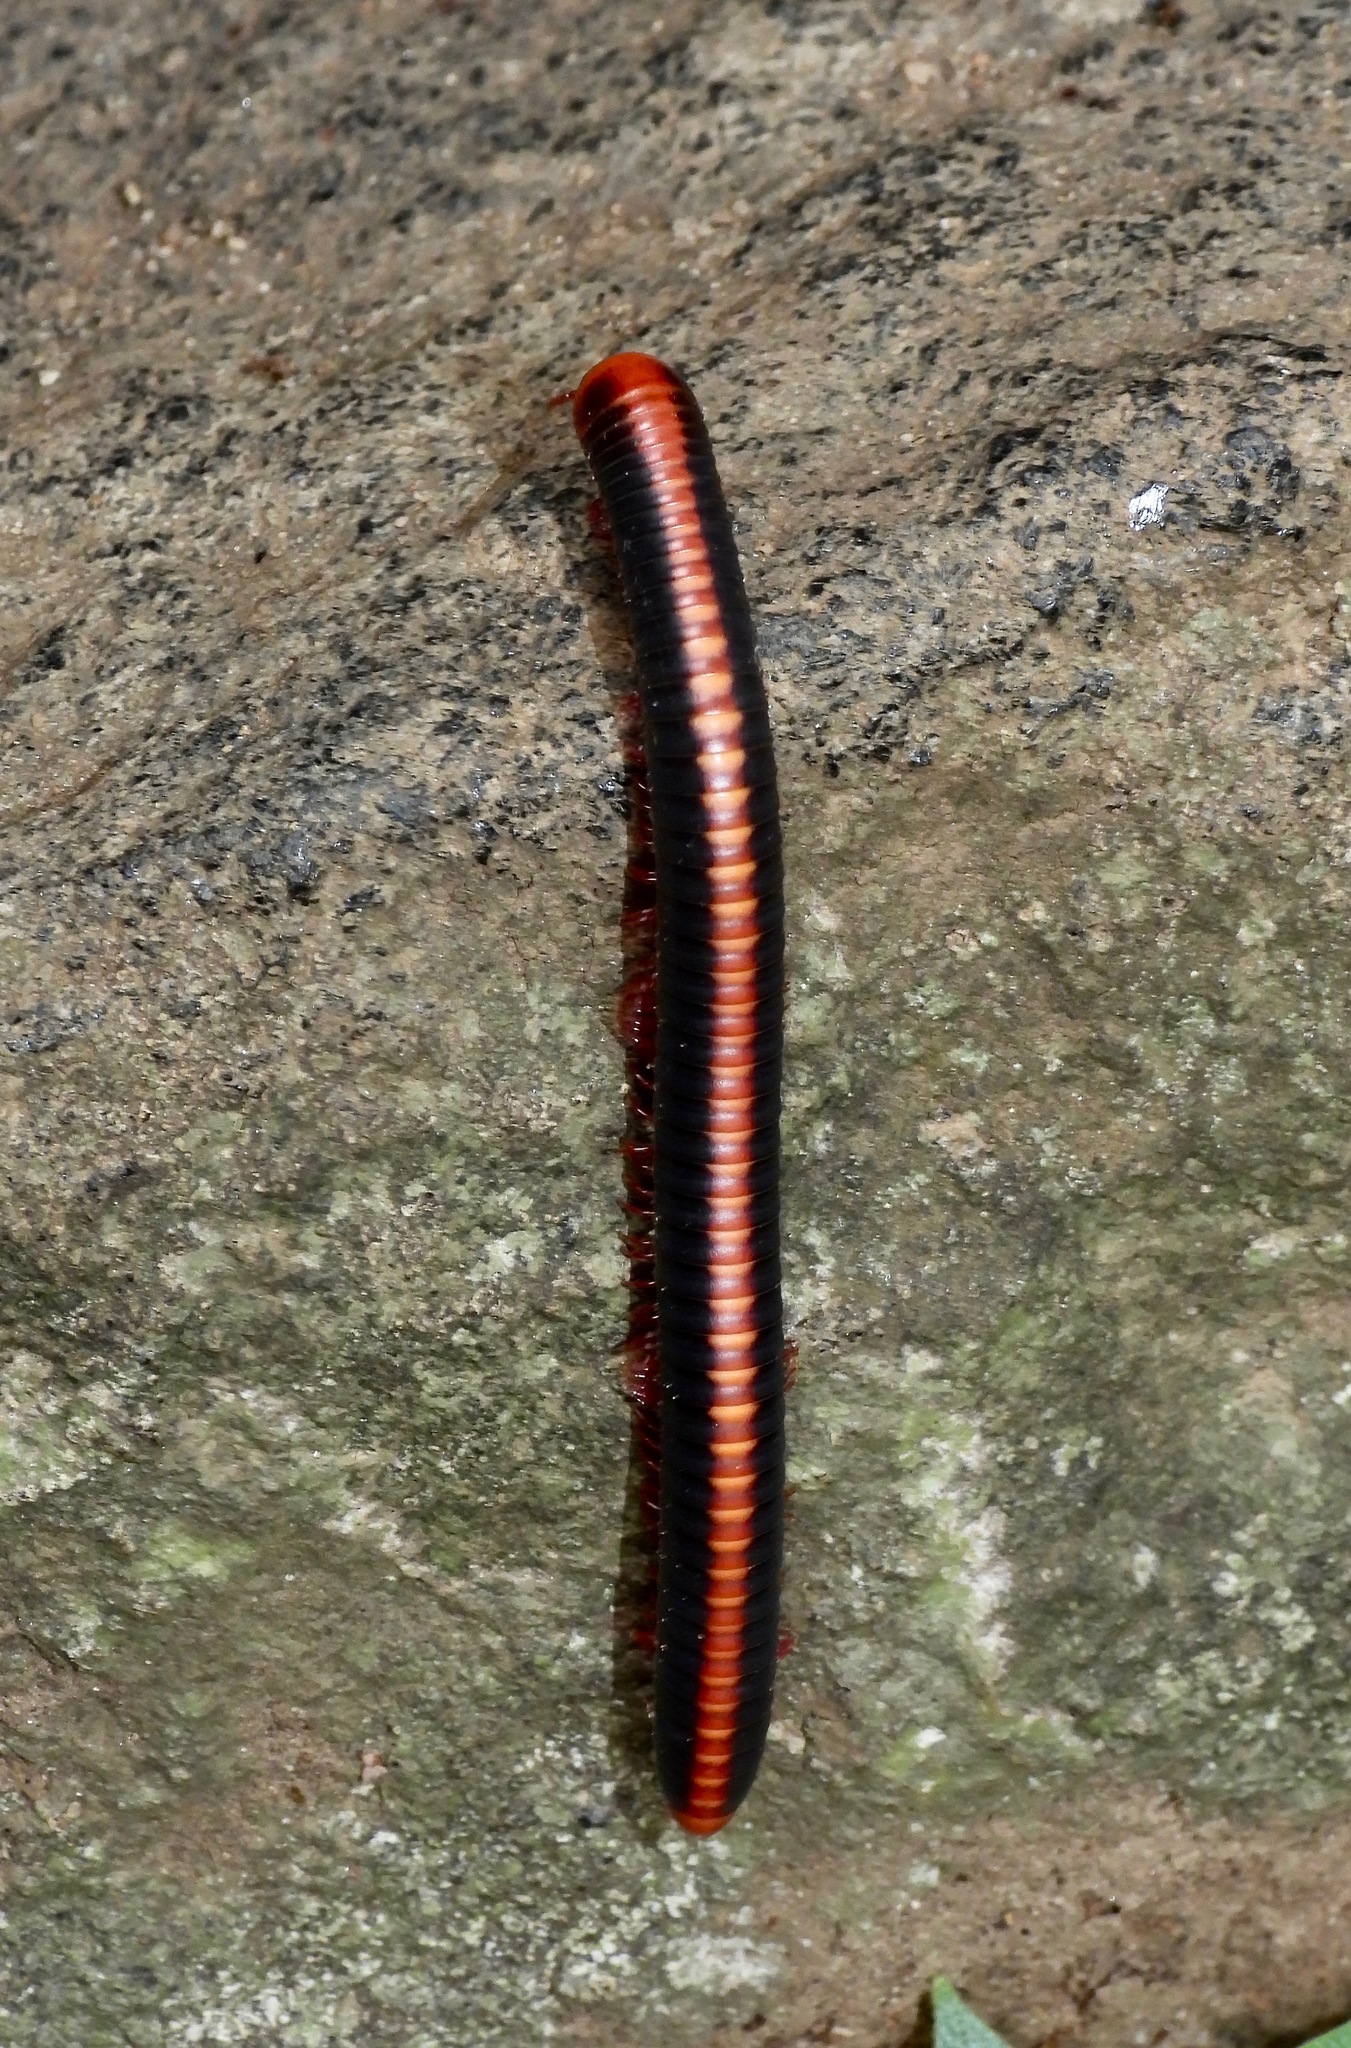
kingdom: Animalia
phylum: Arthropoda
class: Diplopoda
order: Spirobolida
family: Pachybolidae
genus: Xenobolus
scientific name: Xenobolus carnifex
